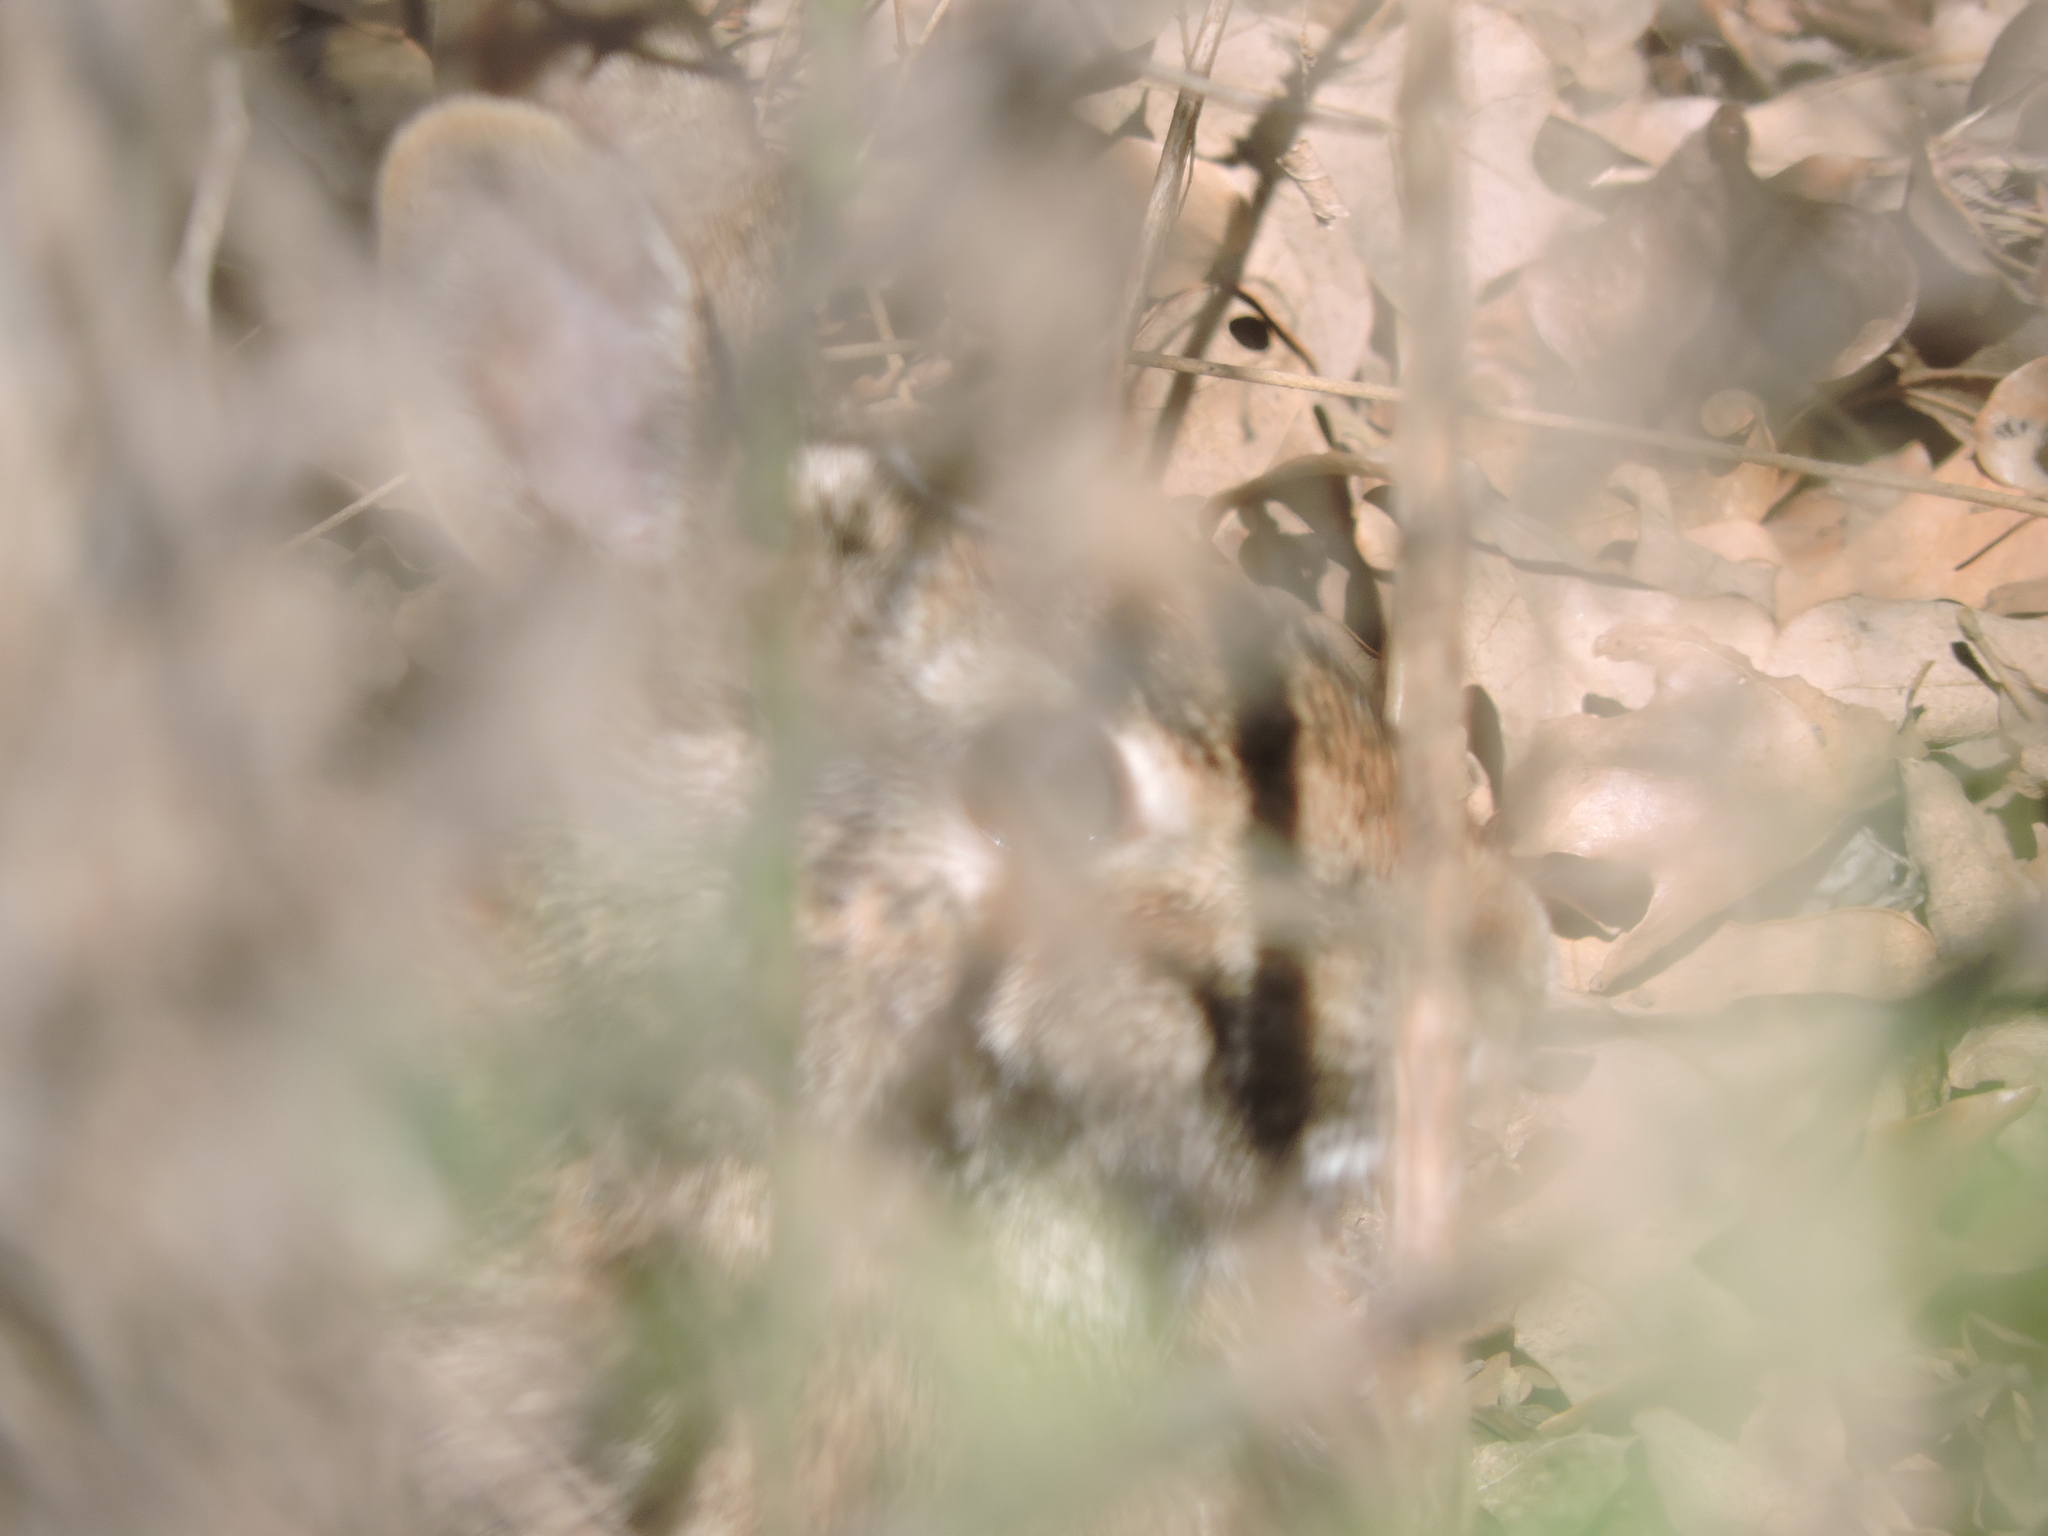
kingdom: Animalia
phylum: Chordata
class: Mammalia
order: Lagomorpha
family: Leporidae
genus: Sylvilagus
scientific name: Sylvilagus floridanus
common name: Eastern cottontail
